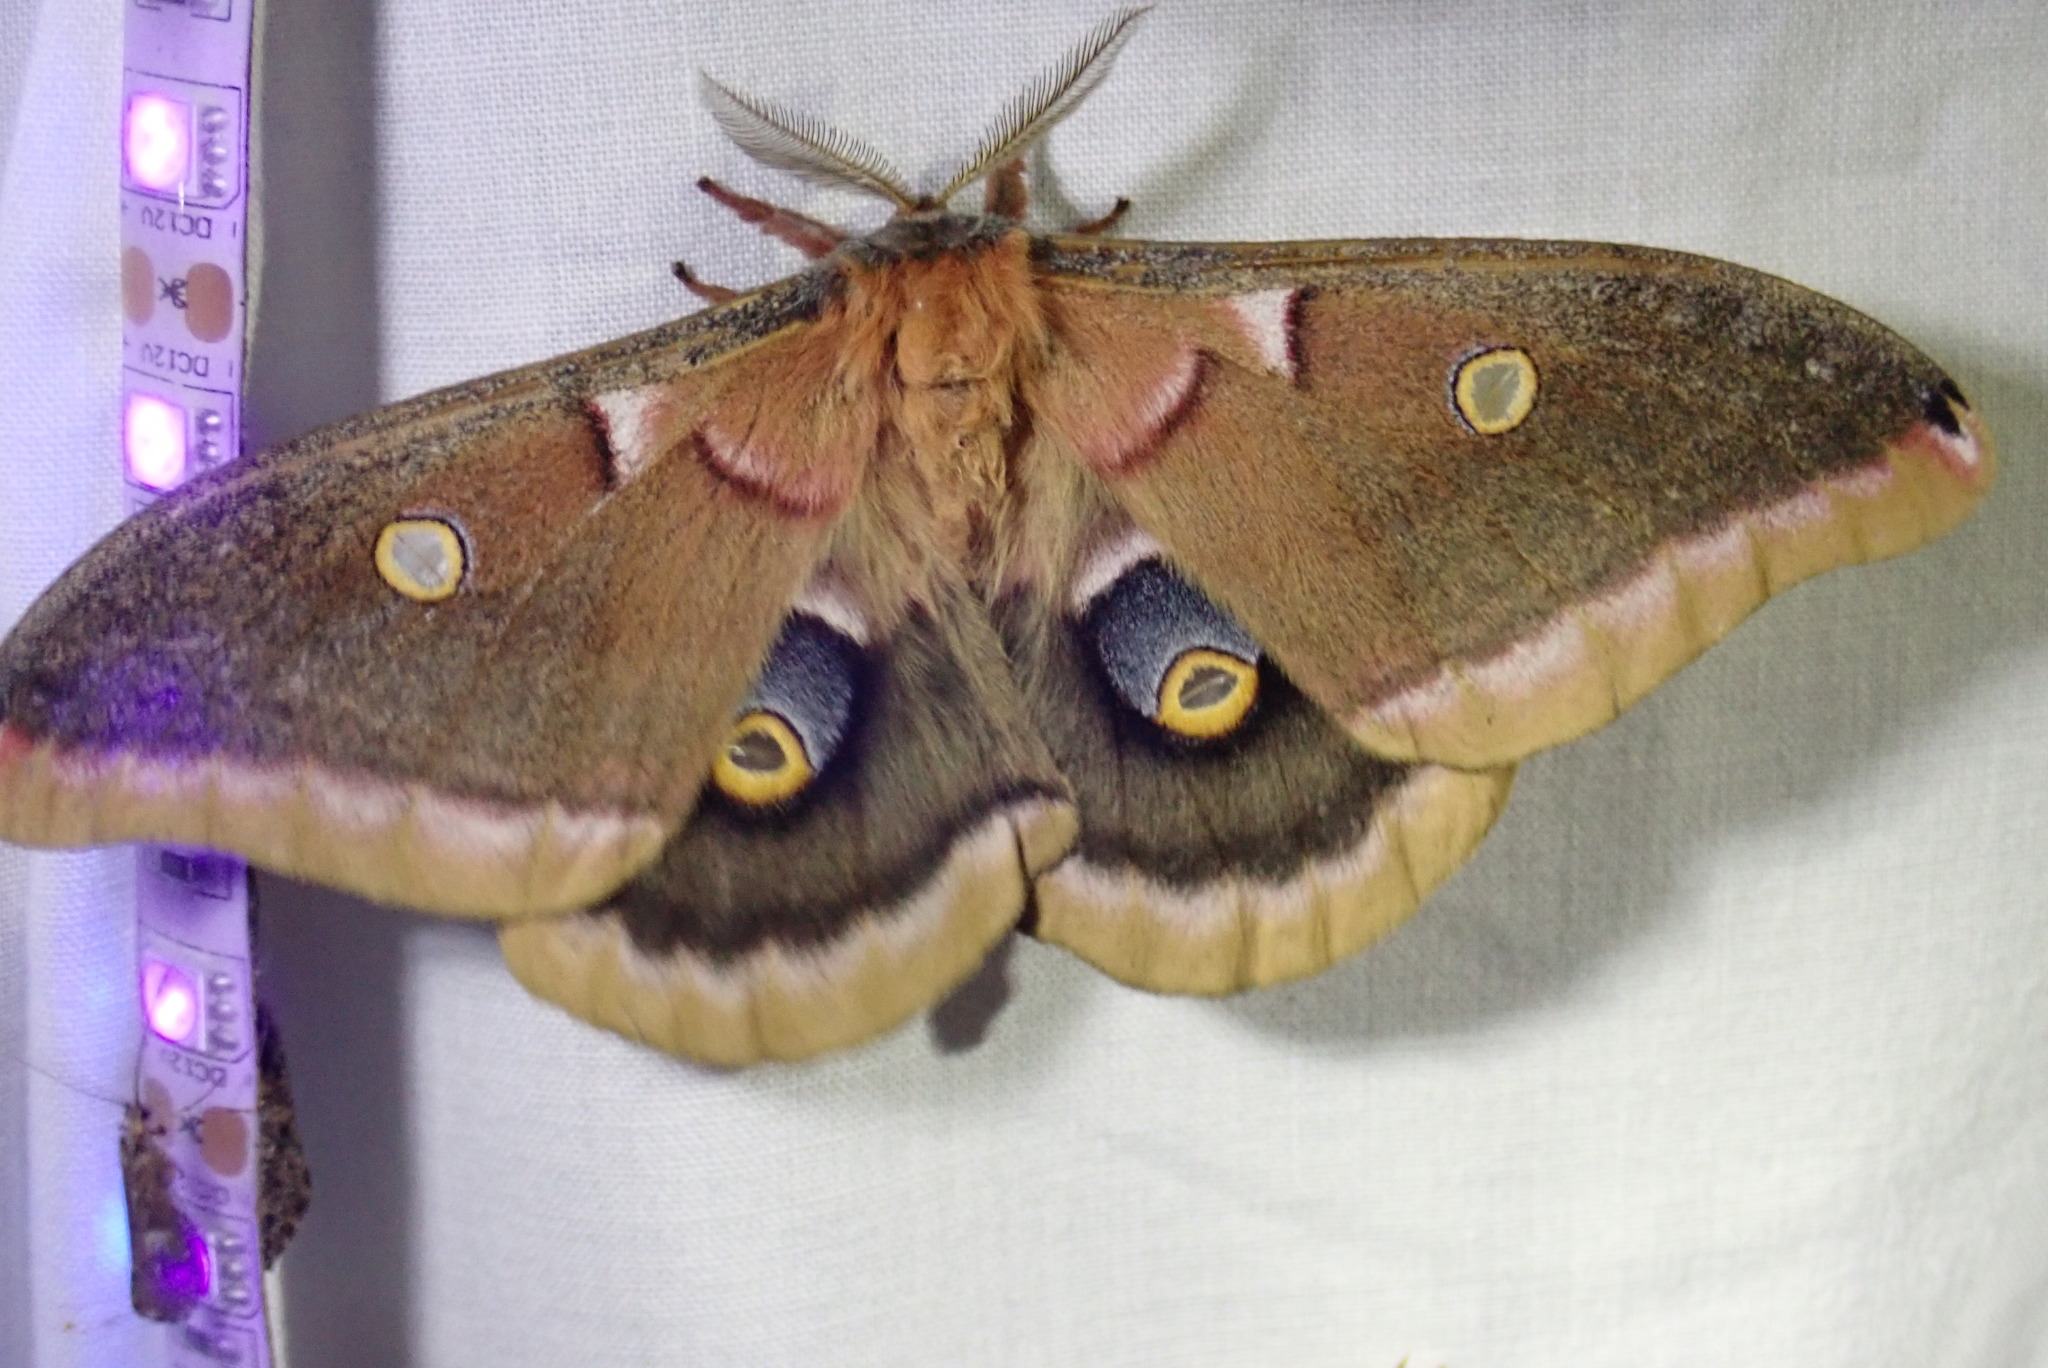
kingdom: Animalia
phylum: Arthropoda
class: Insecta
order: Lepidoptera
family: Saturniidae
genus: Antheraea
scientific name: Antheraea polyphemus
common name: Polyphemus moth
